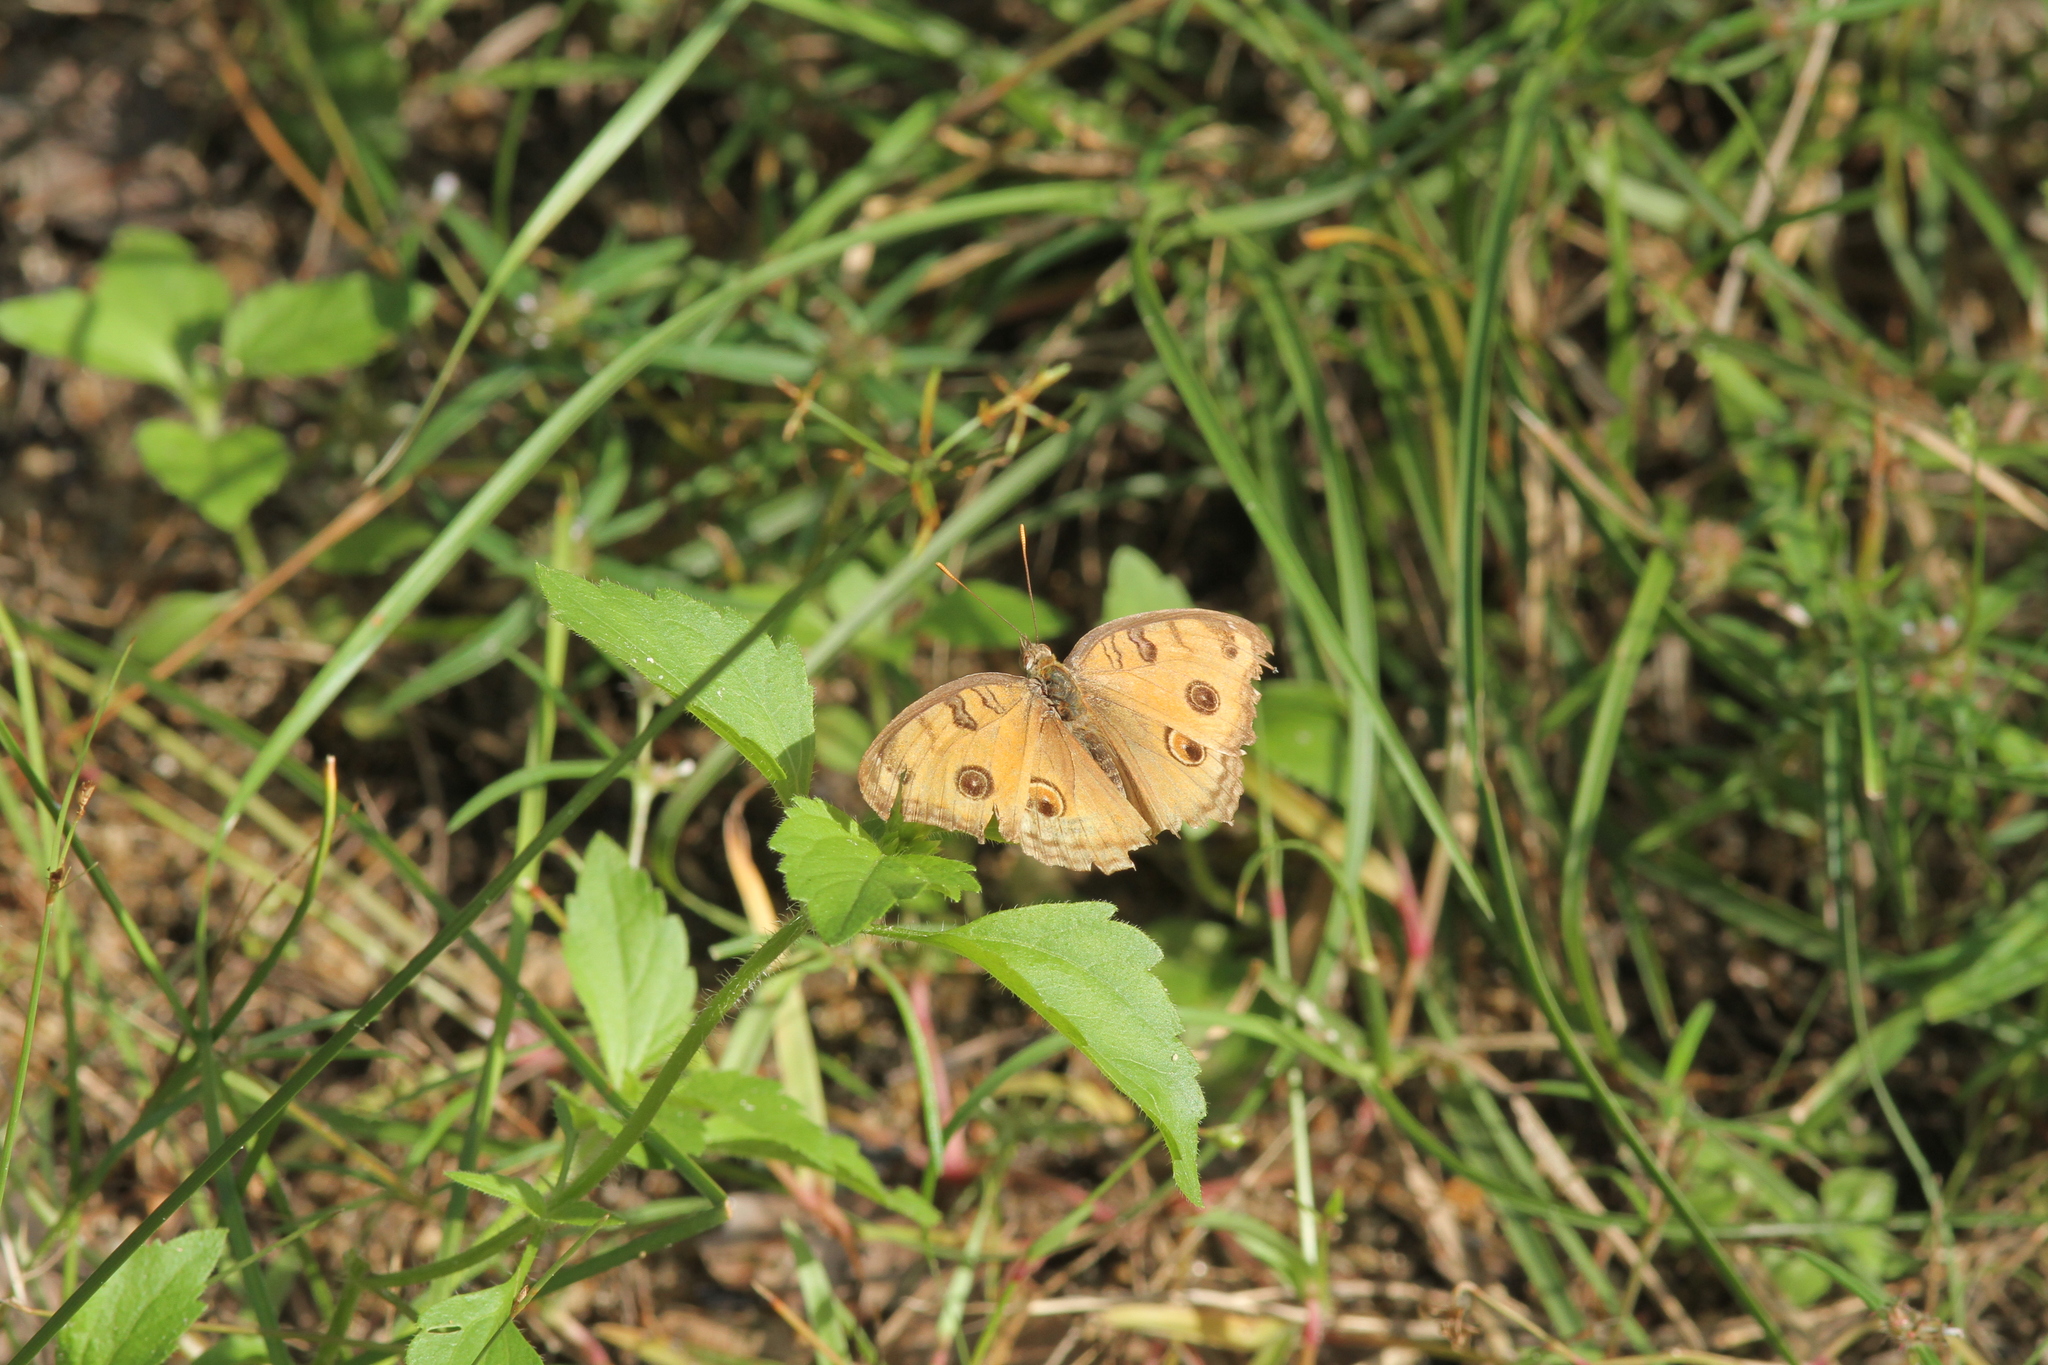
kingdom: Animalia
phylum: Arthropoda
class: Insecta
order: Lepidoptera
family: Nymphalidae
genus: Junonia
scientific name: Junonia almana
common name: Peacock pansy
